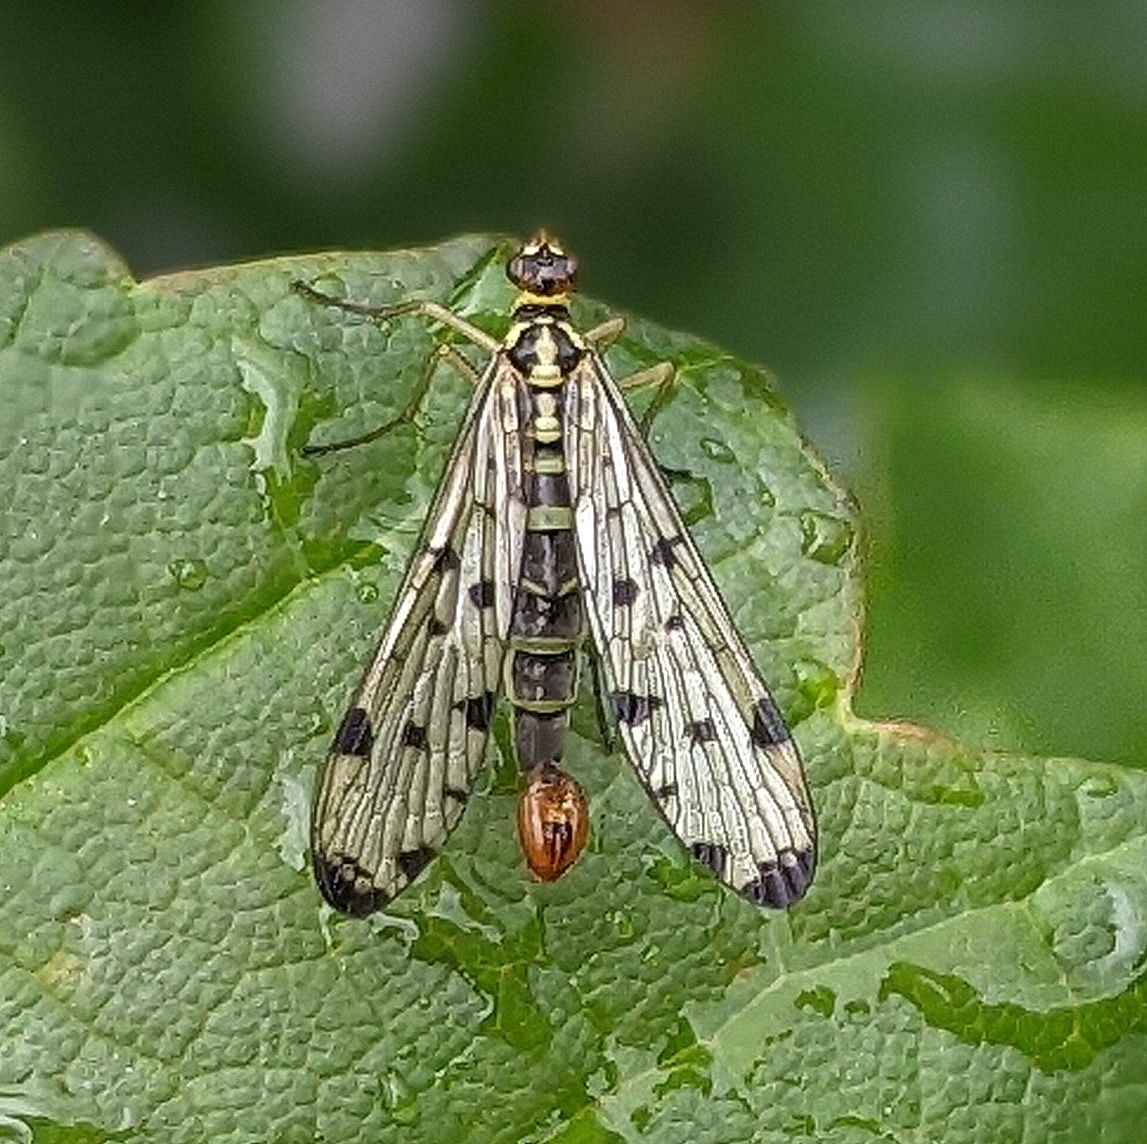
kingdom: Animalia
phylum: Arthropoda
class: Insecta
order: Mecoptera
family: Panorpidae
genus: Panorpa
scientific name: Panorpa germanica
